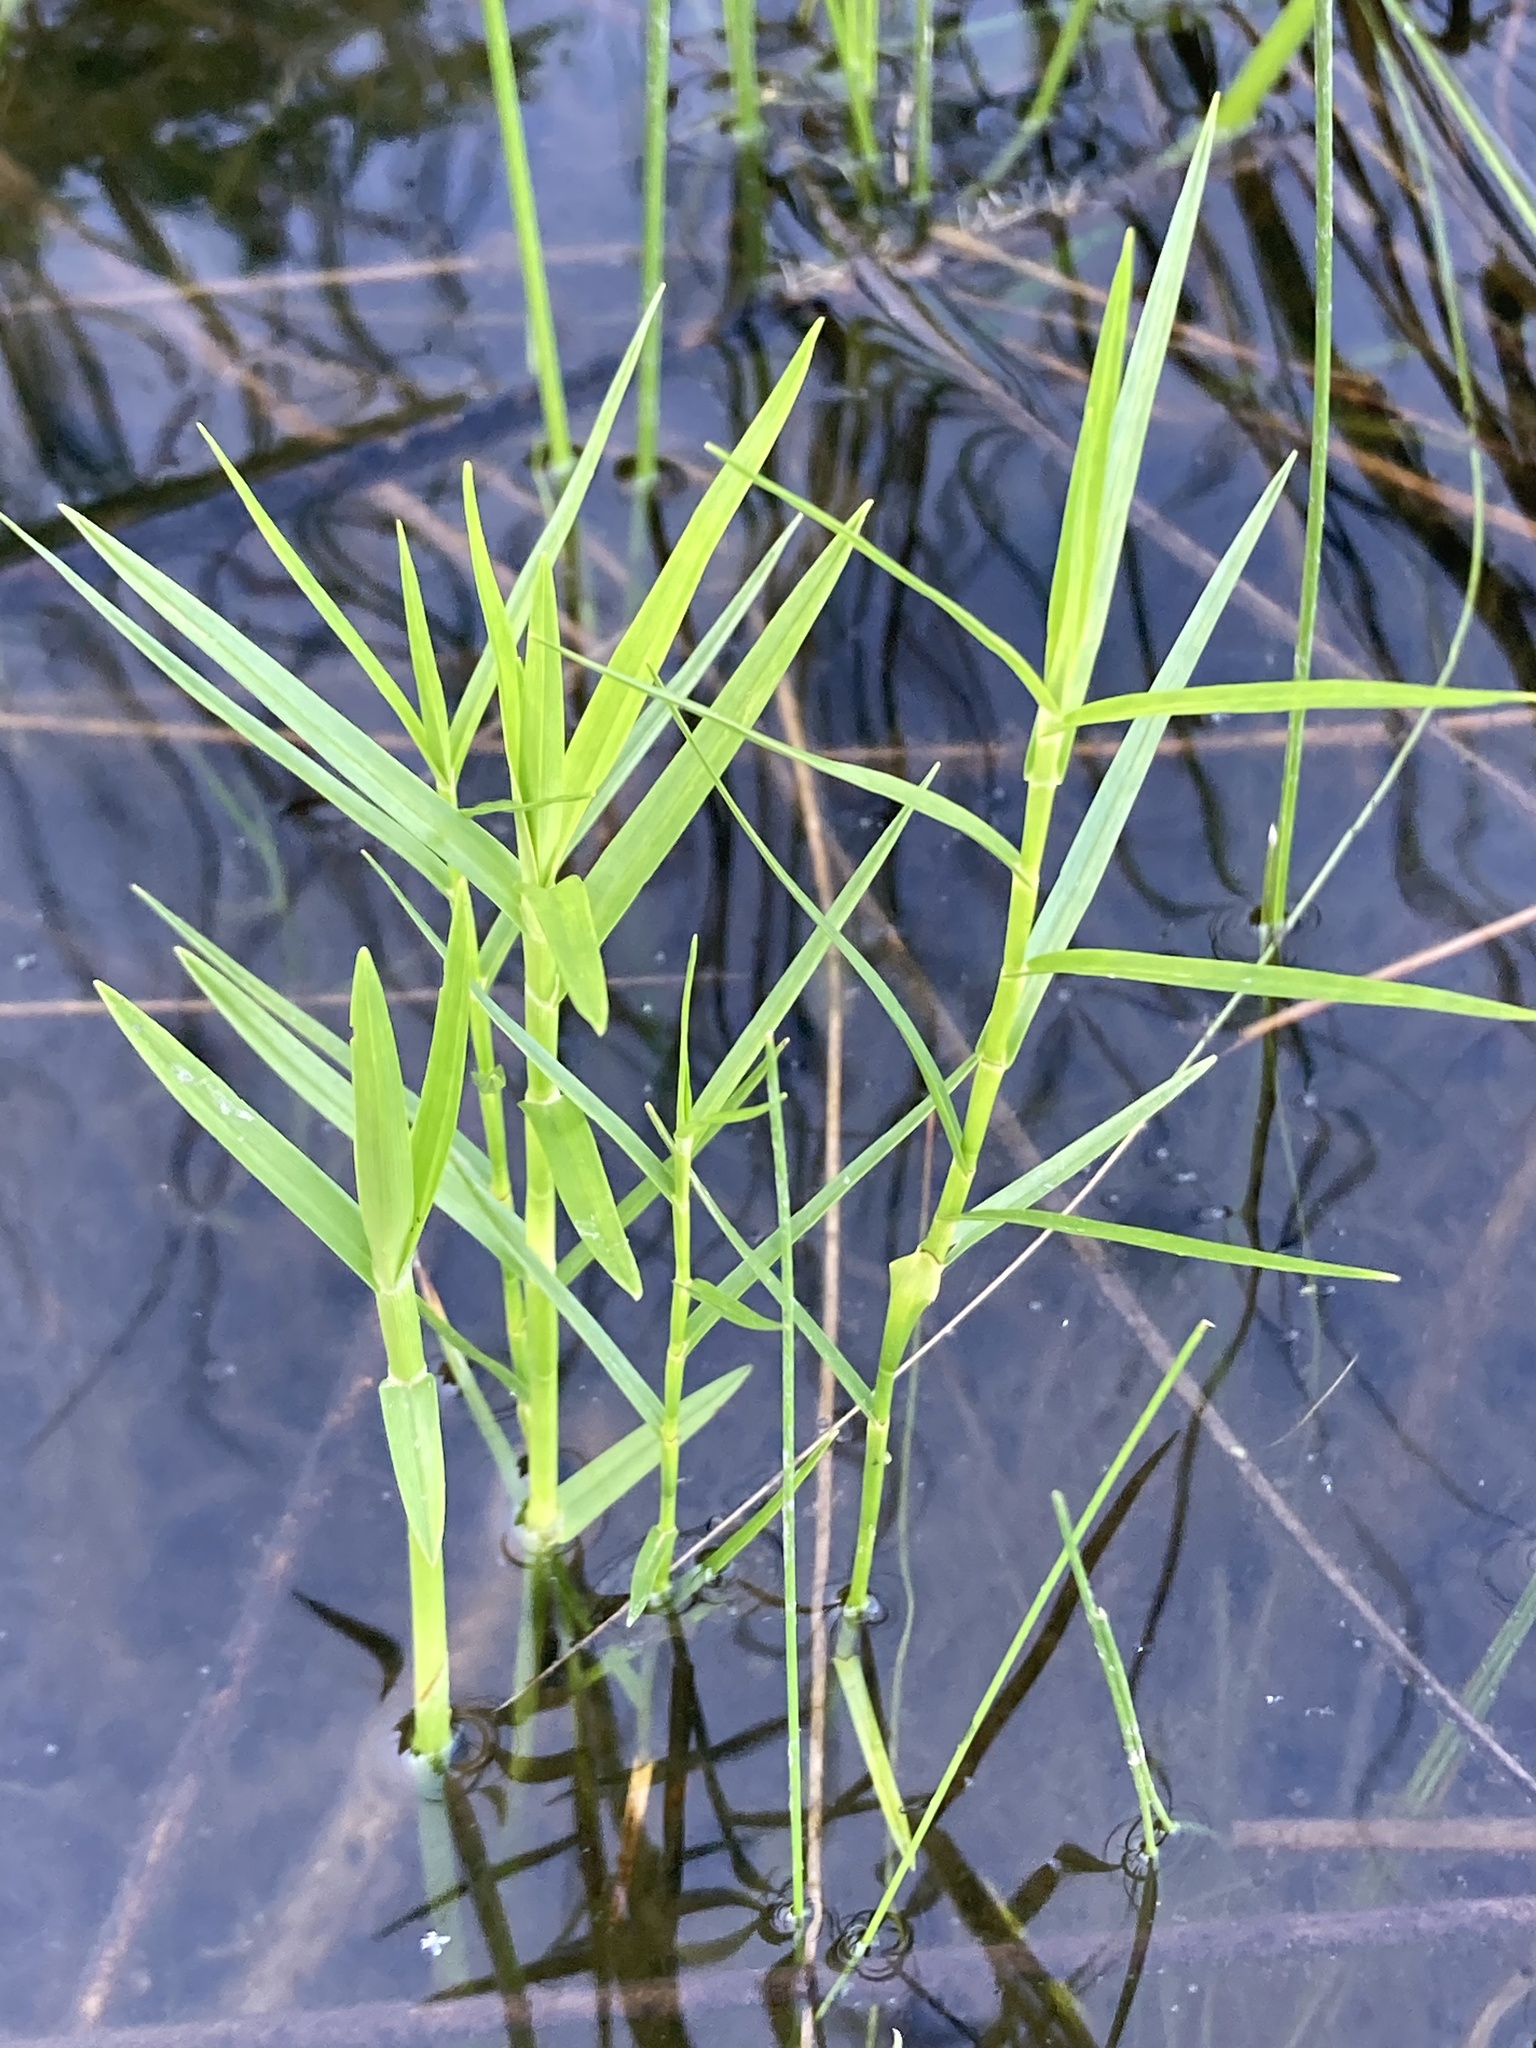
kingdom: Plantae
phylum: Tracheophyta
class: Liliopsida
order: Poales
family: Cyperaceae
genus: Dulichium
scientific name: Dulichium arundinaceum
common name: Three-way sedge
